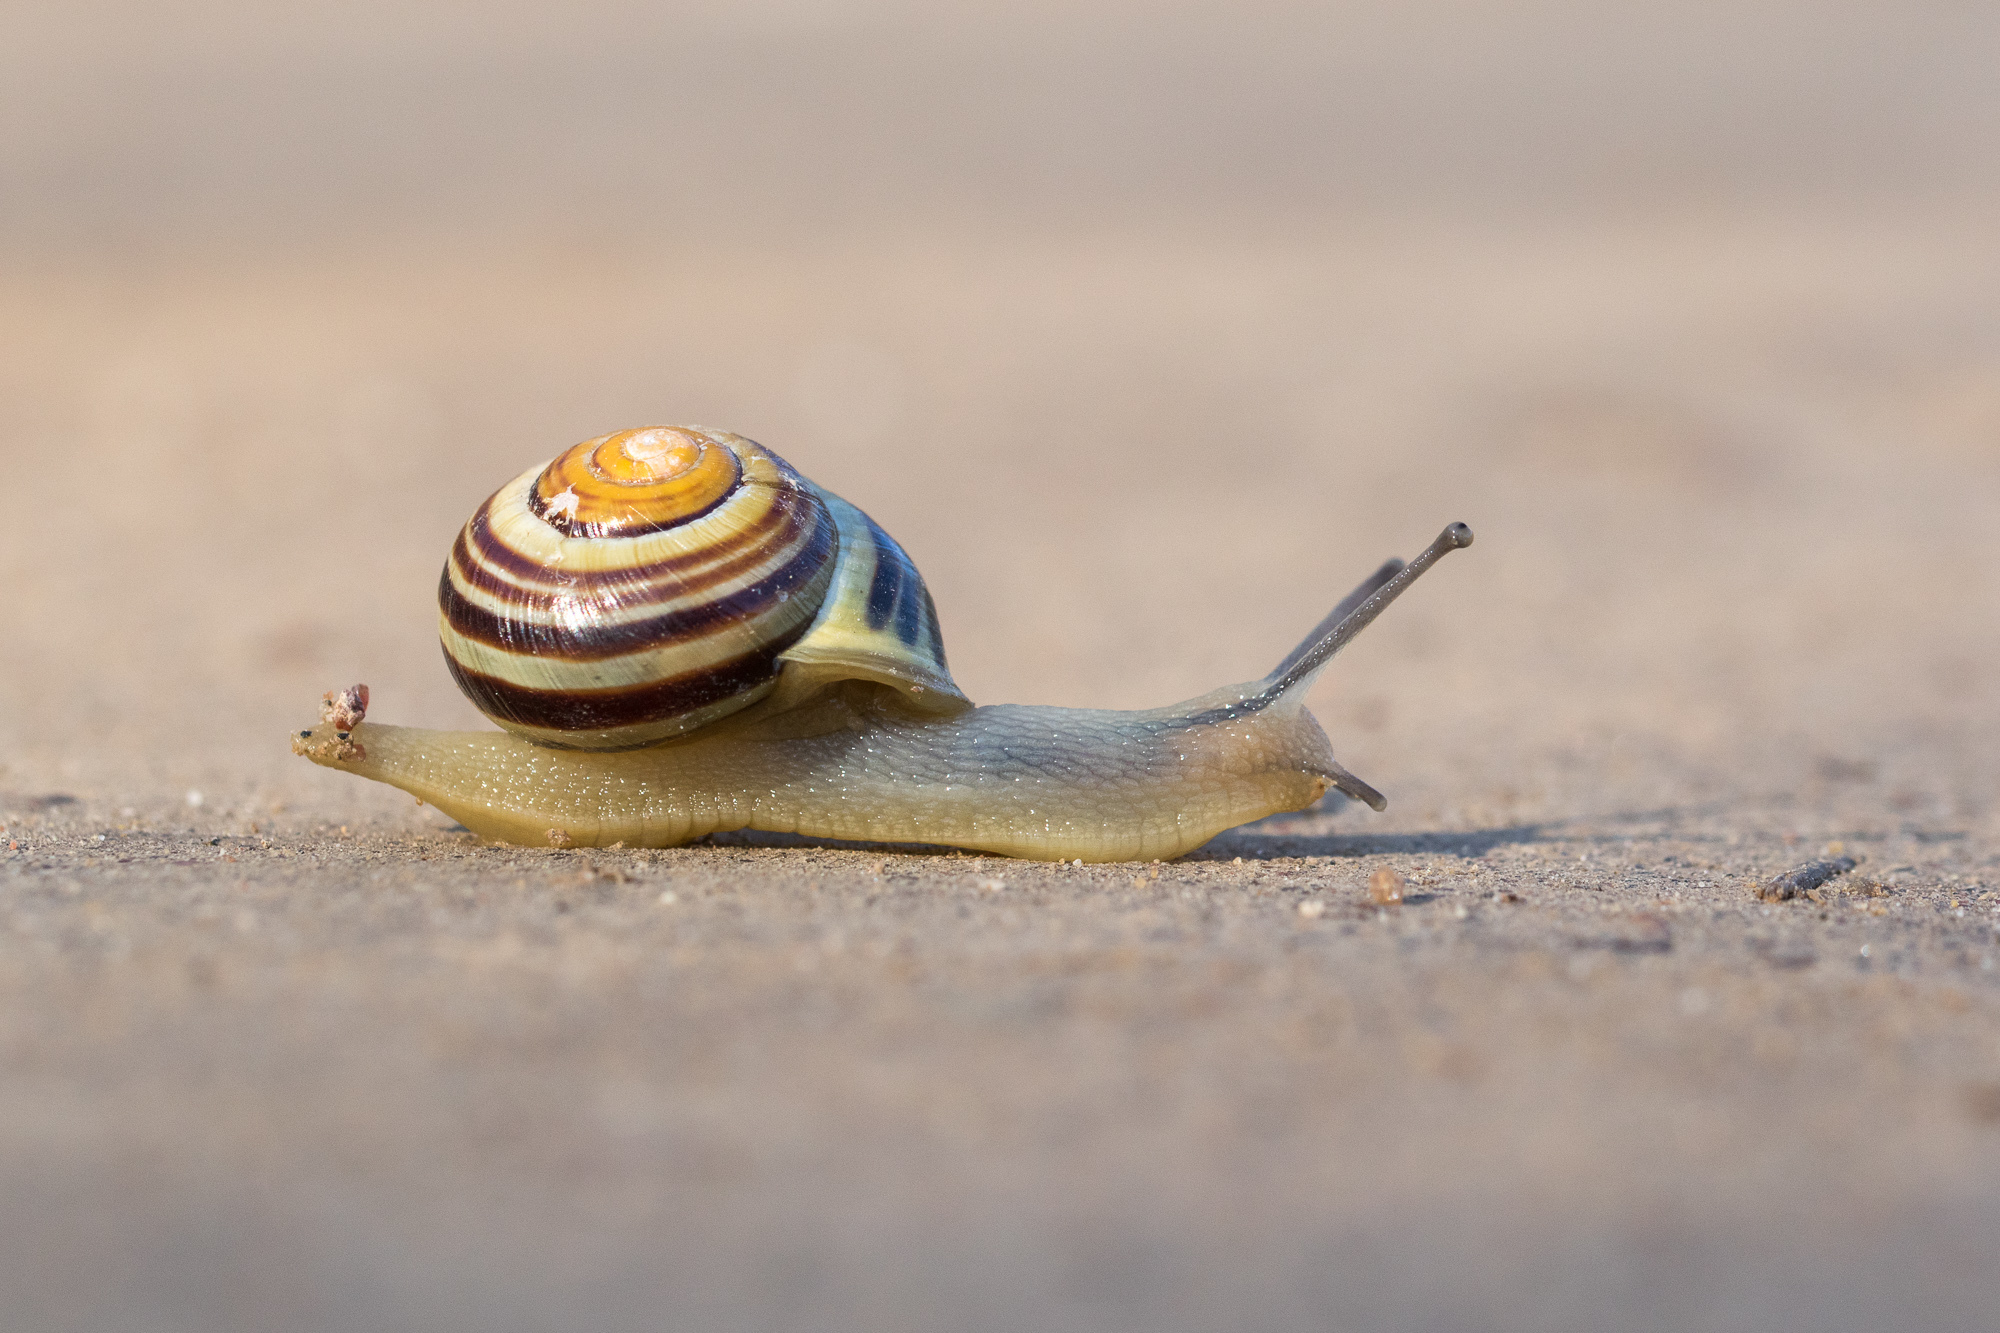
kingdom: Animalia
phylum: Mollusca
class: Gastropoda
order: Stylommatophora
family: Helicidae
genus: Cepaea
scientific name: Cepaea hortensis
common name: White-lip gardensnail
